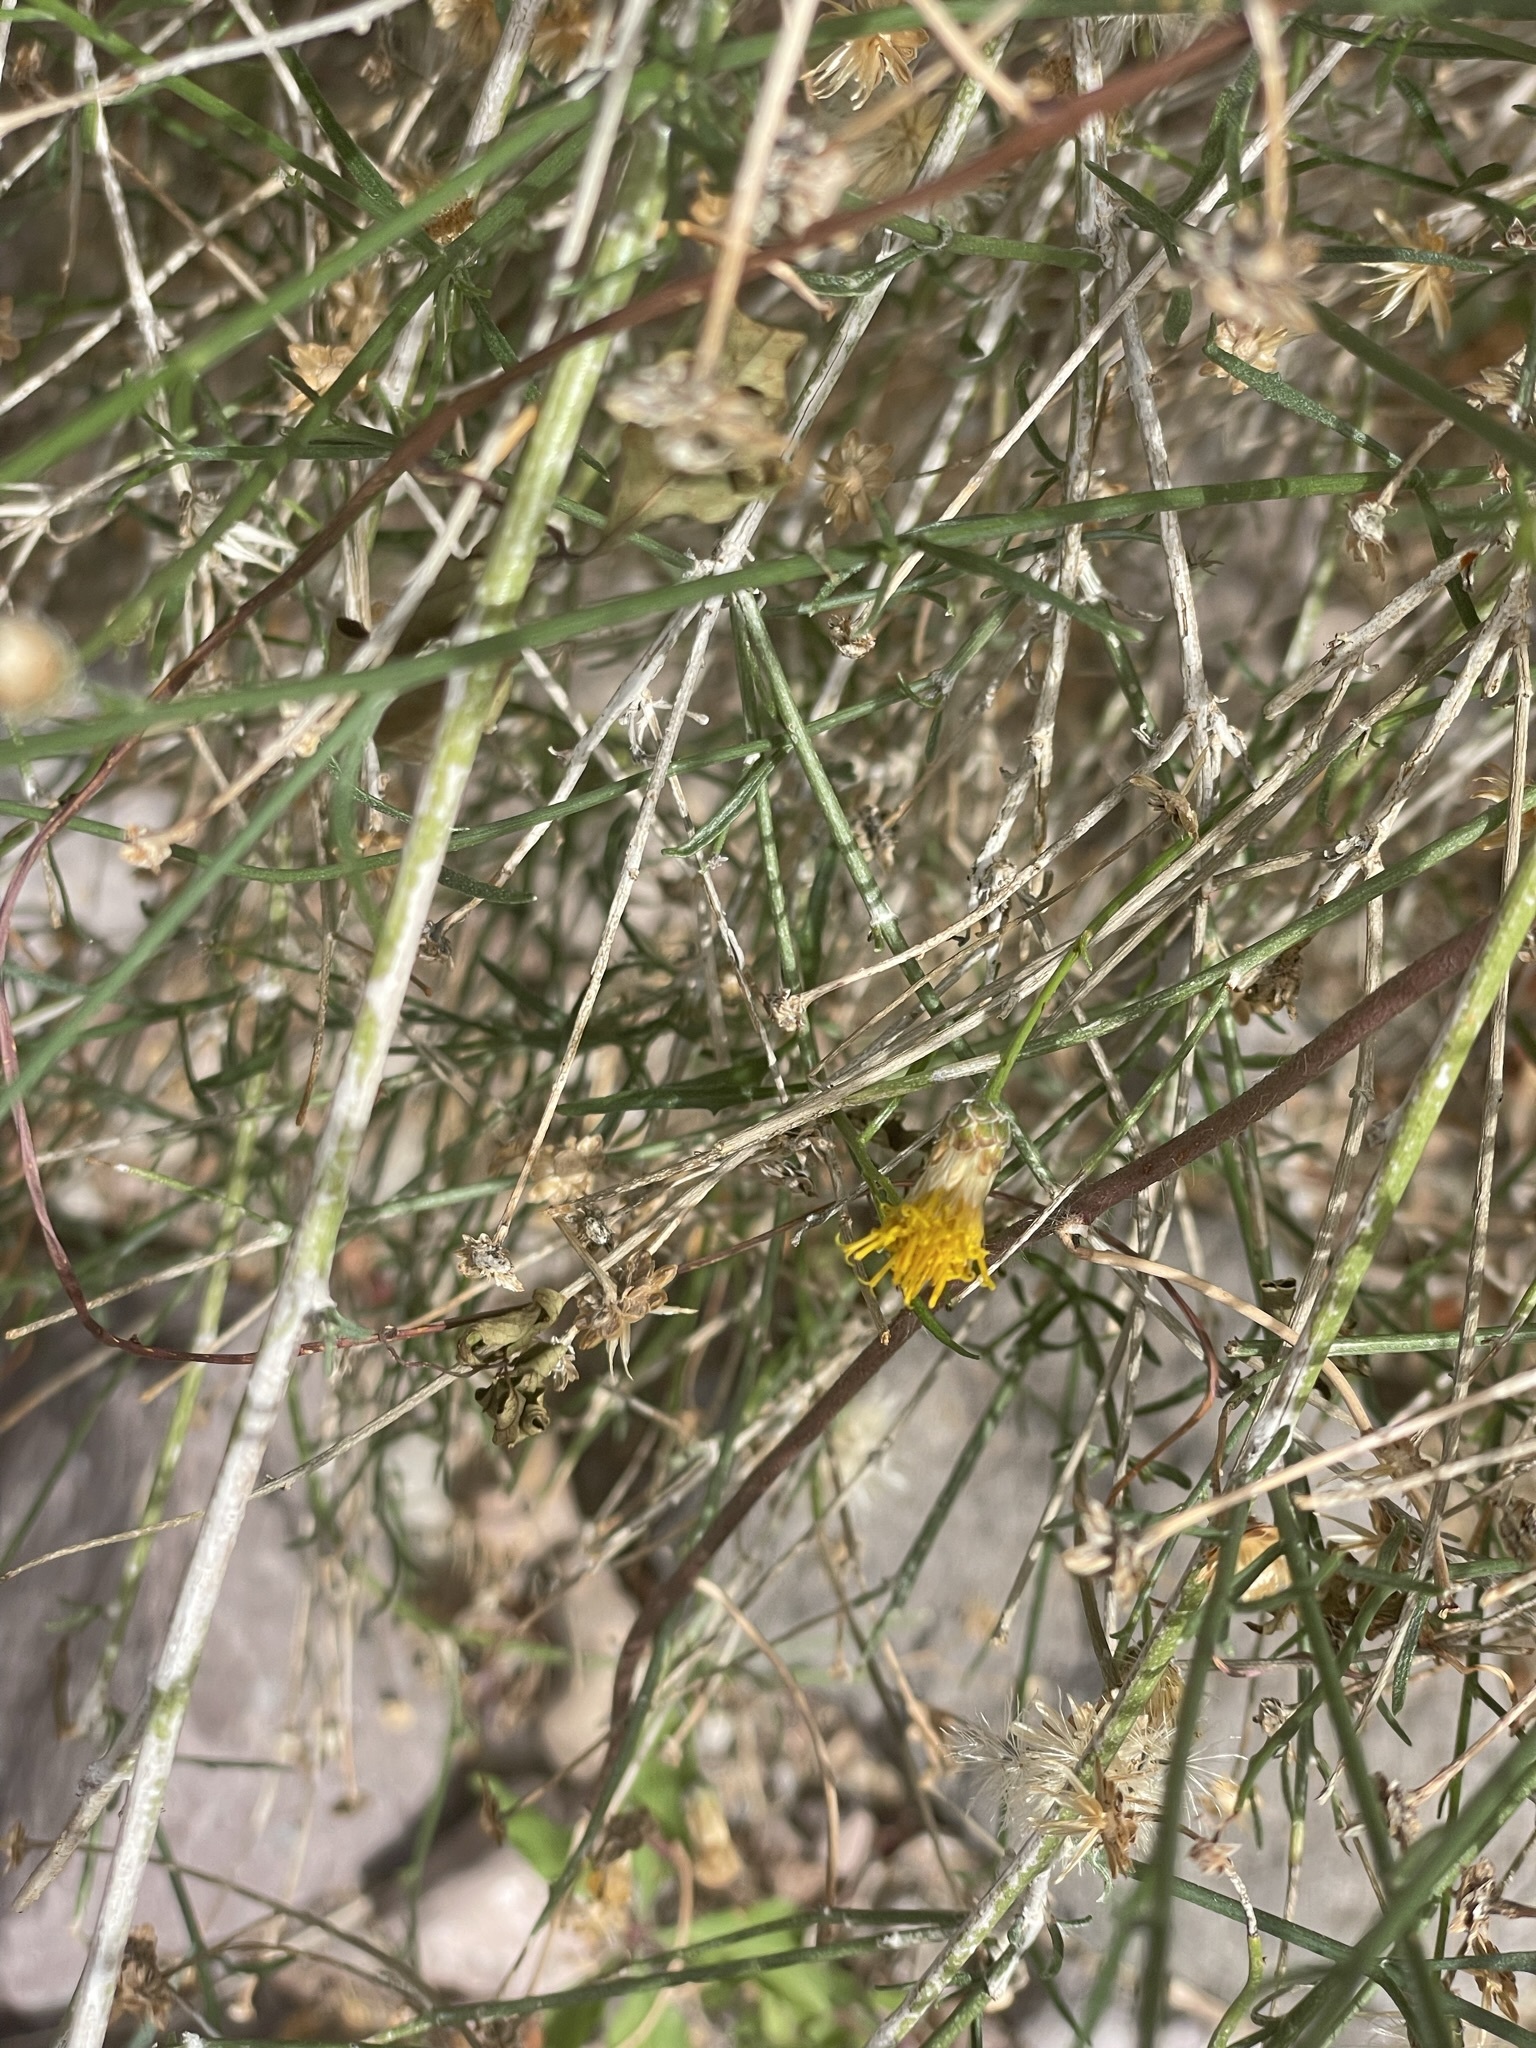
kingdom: Plantae
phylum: Tracheophyta
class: Magnoliopsida
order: Asterales
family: Asteraceae
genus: Bebbia
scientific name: Bebbia juncea
